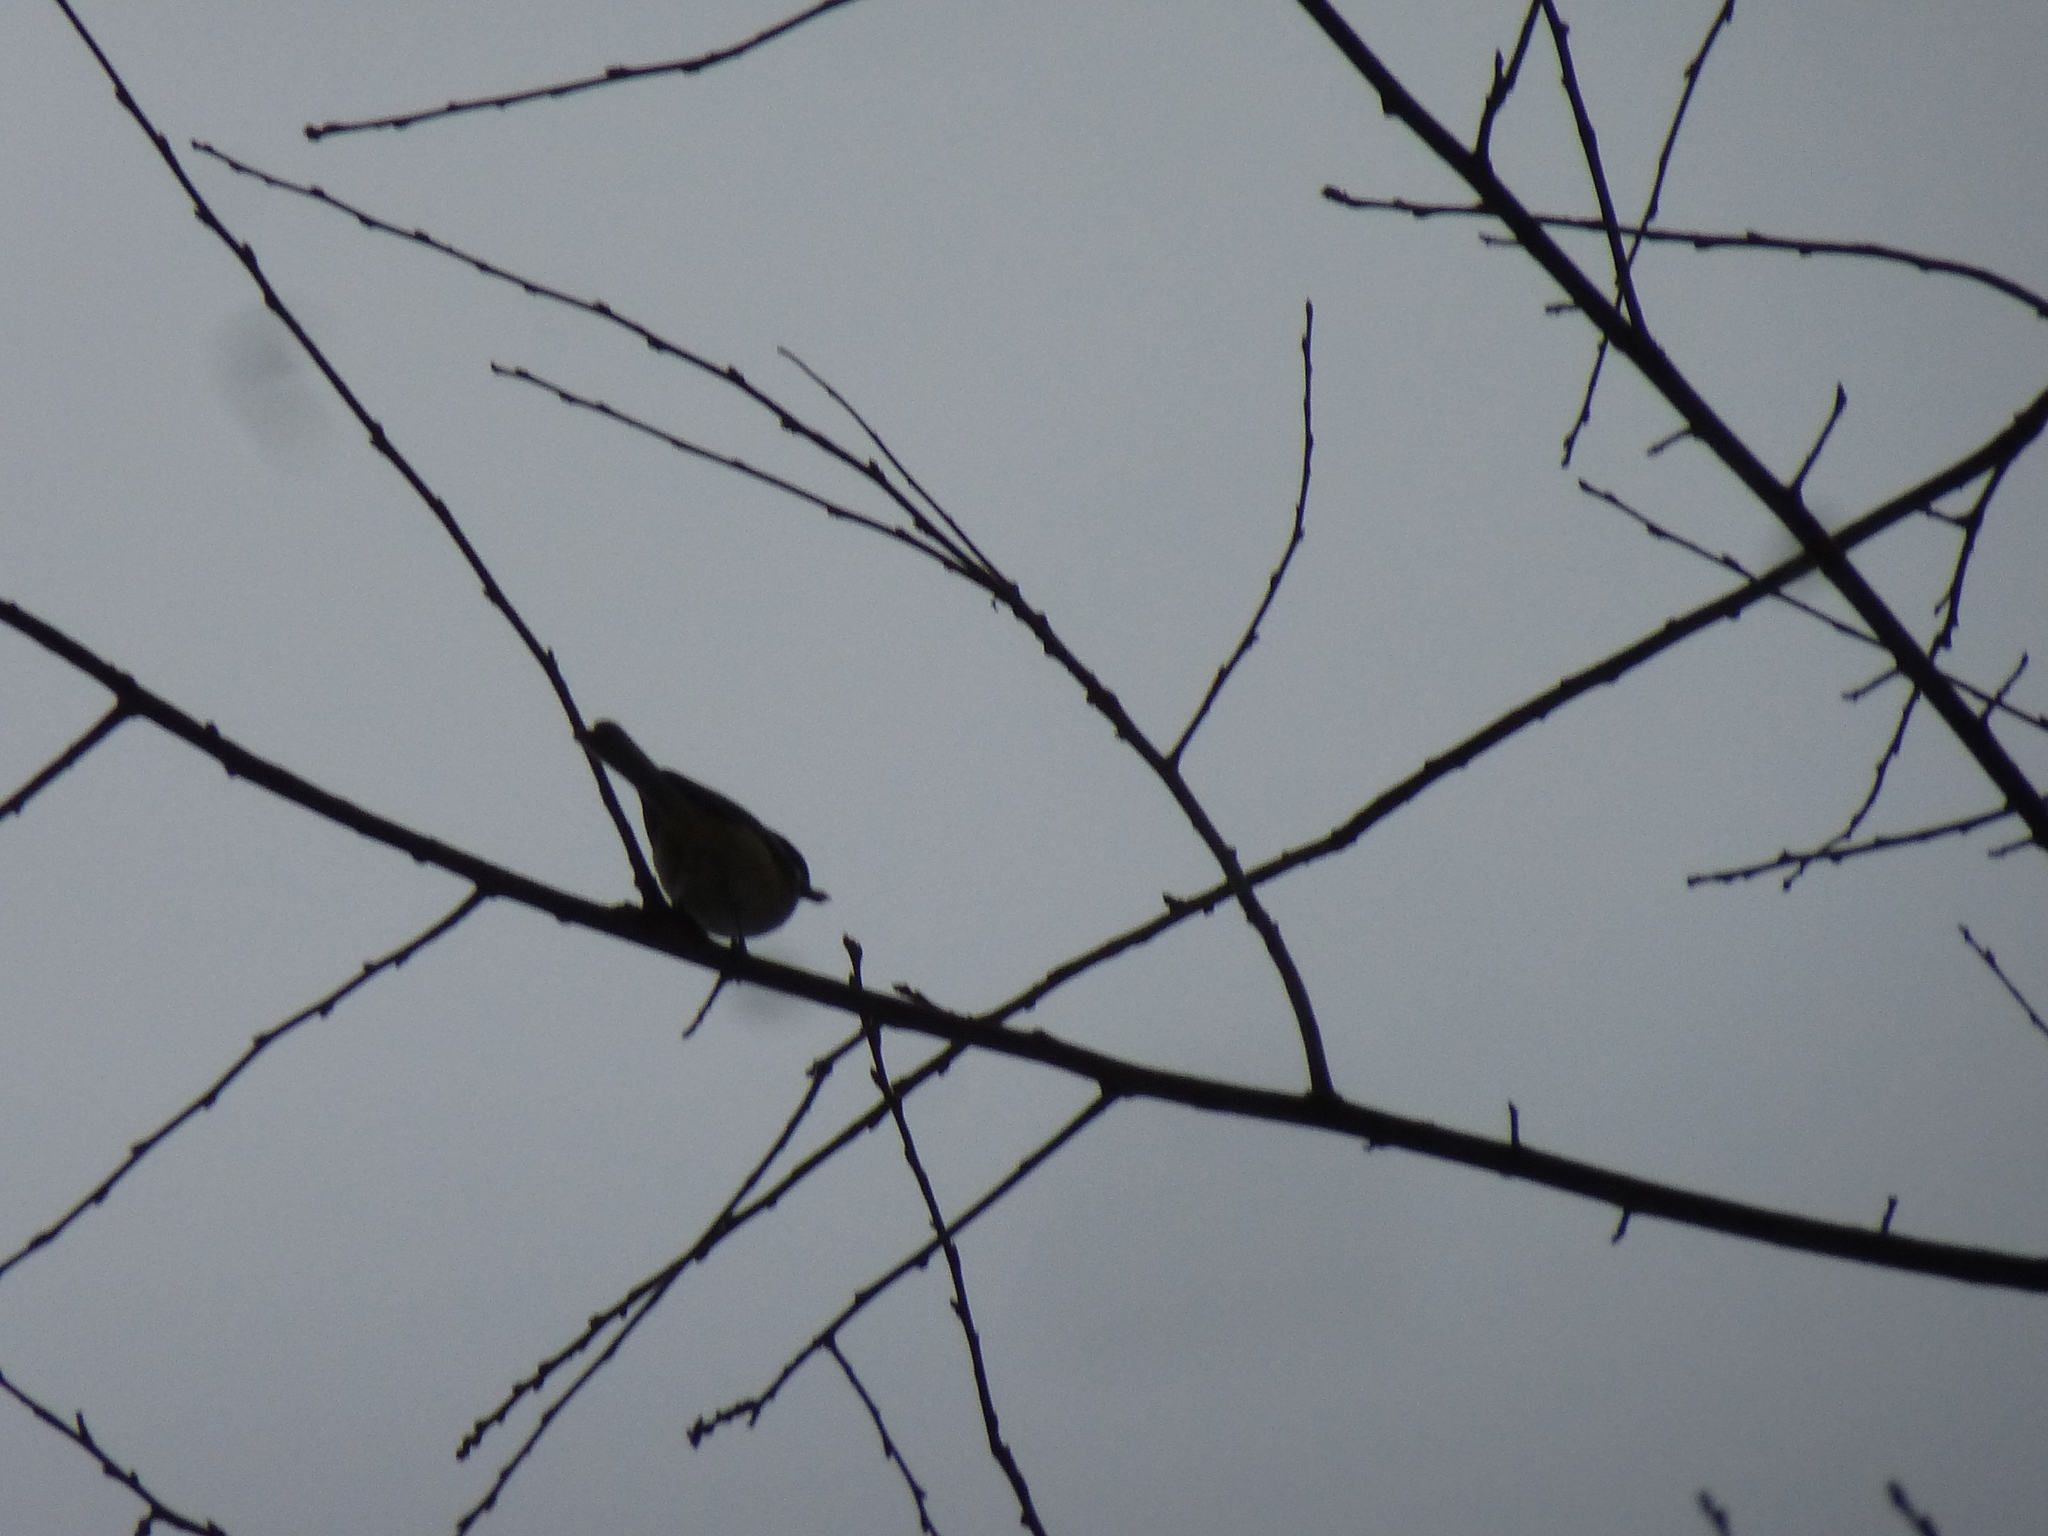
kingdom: Animalia
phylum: Chordata
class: Aves
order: Passeriformes
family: Paridae
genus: Poecile
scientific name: Poecile atricapillus
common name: Black-capped chickadee
